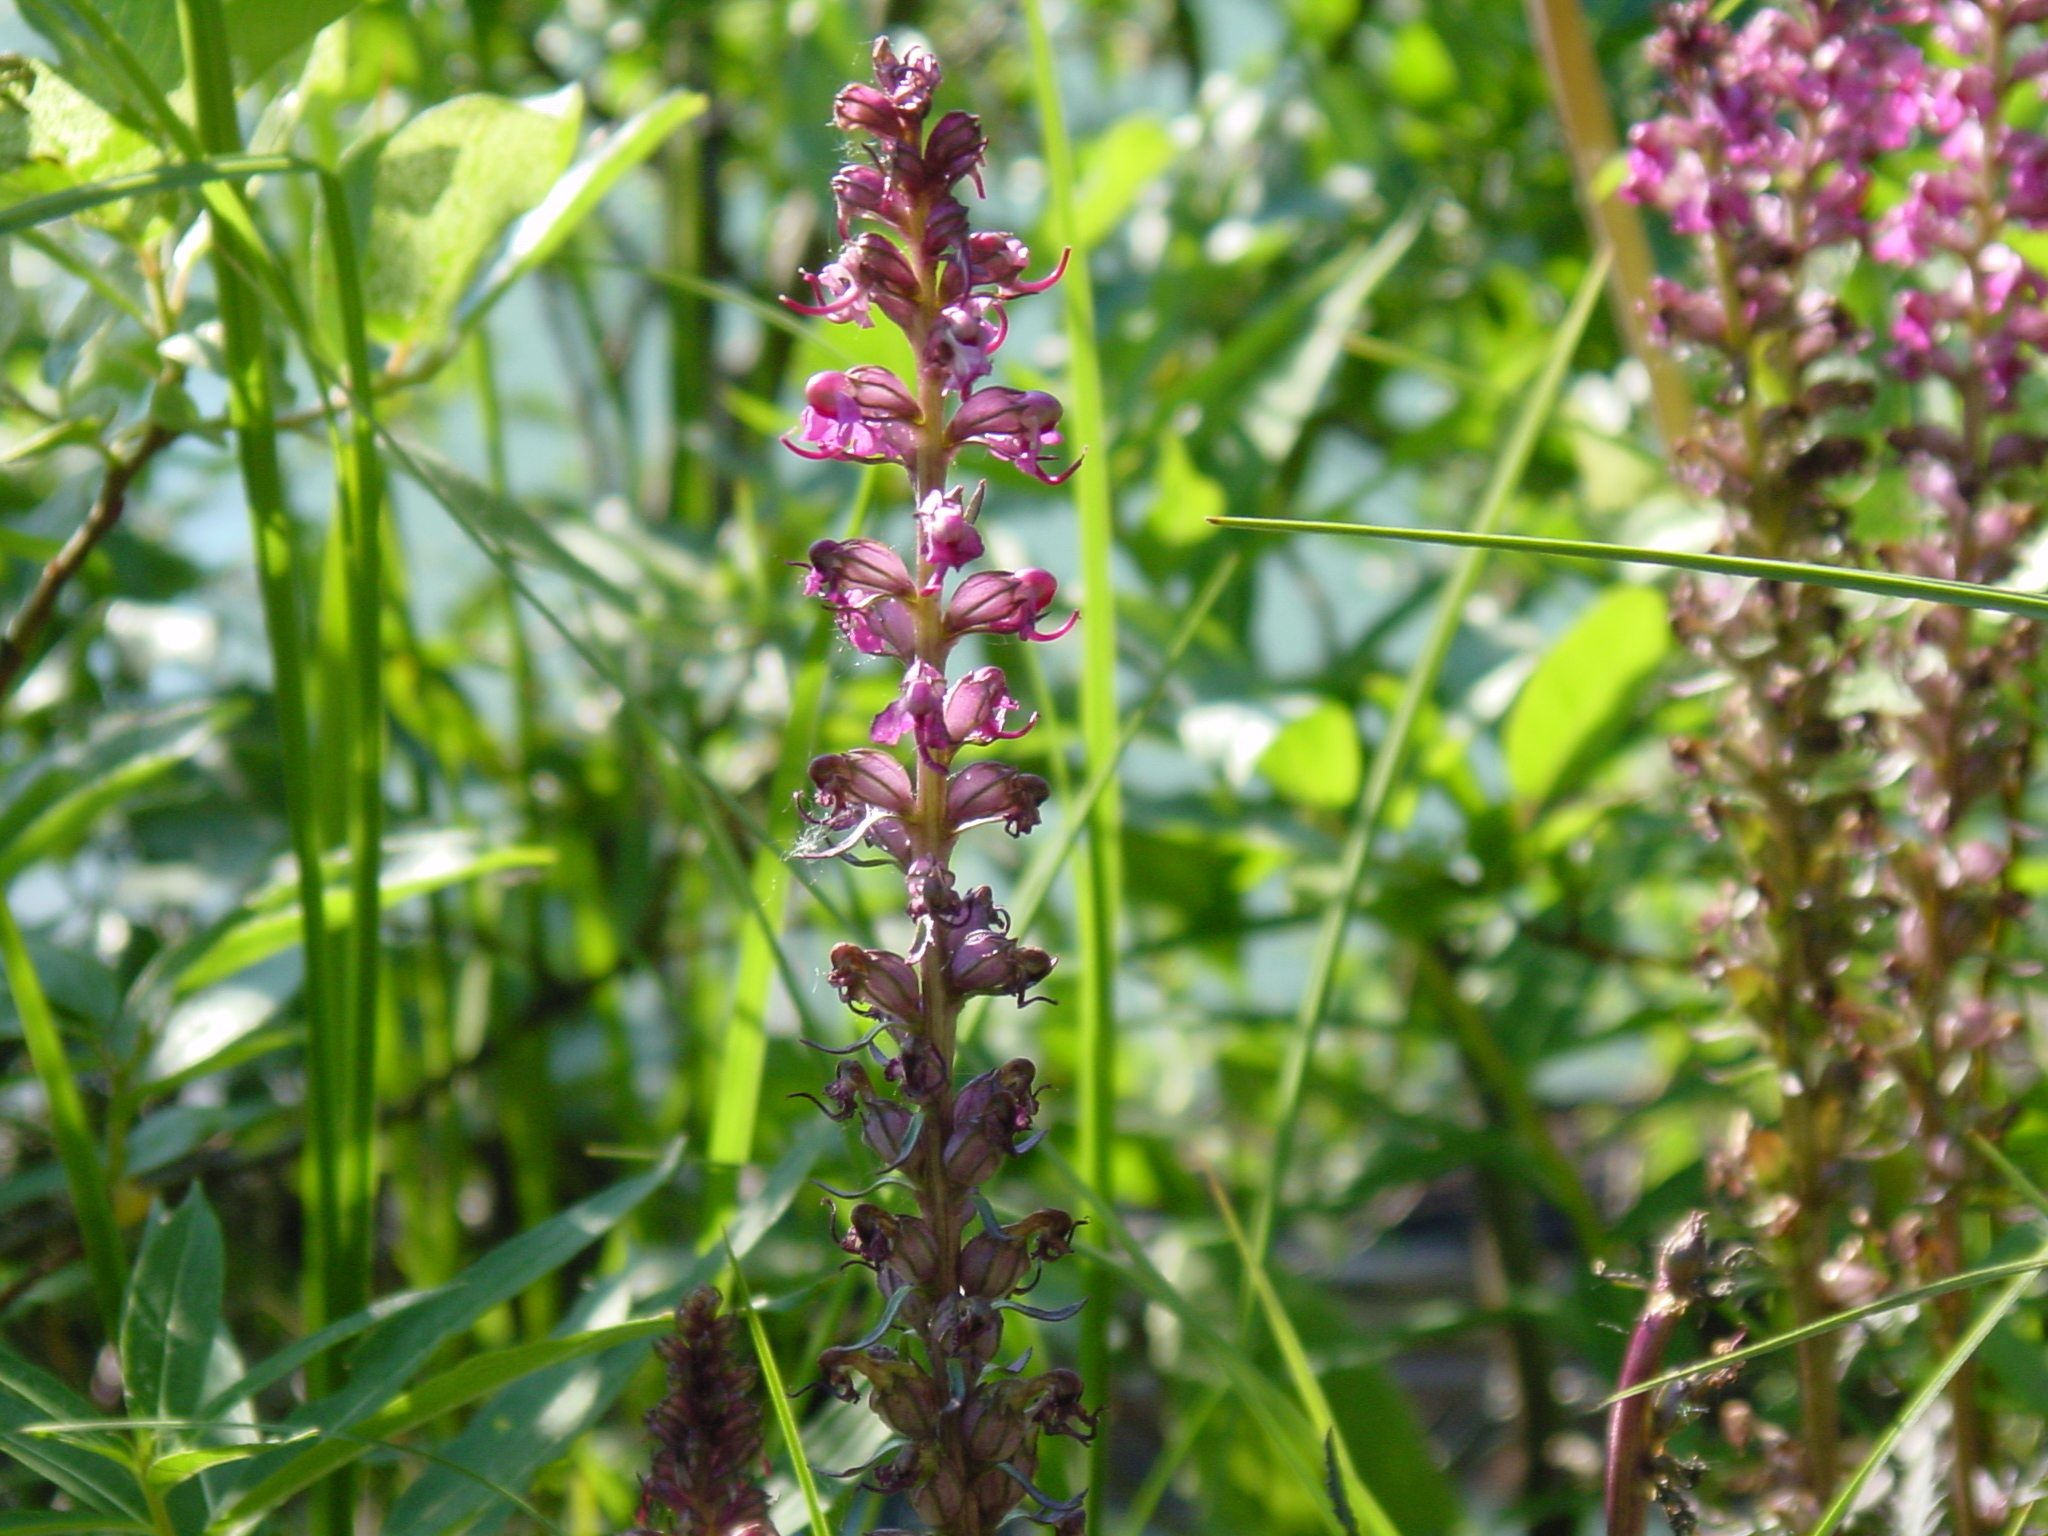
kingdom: Plantae
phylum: Tracheophyta
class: Magnoliopsida
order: Lamiales
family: Orobanchaceae
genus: Pedicularis
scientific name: Pedicularis groenlandica
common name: Elephant's-head
